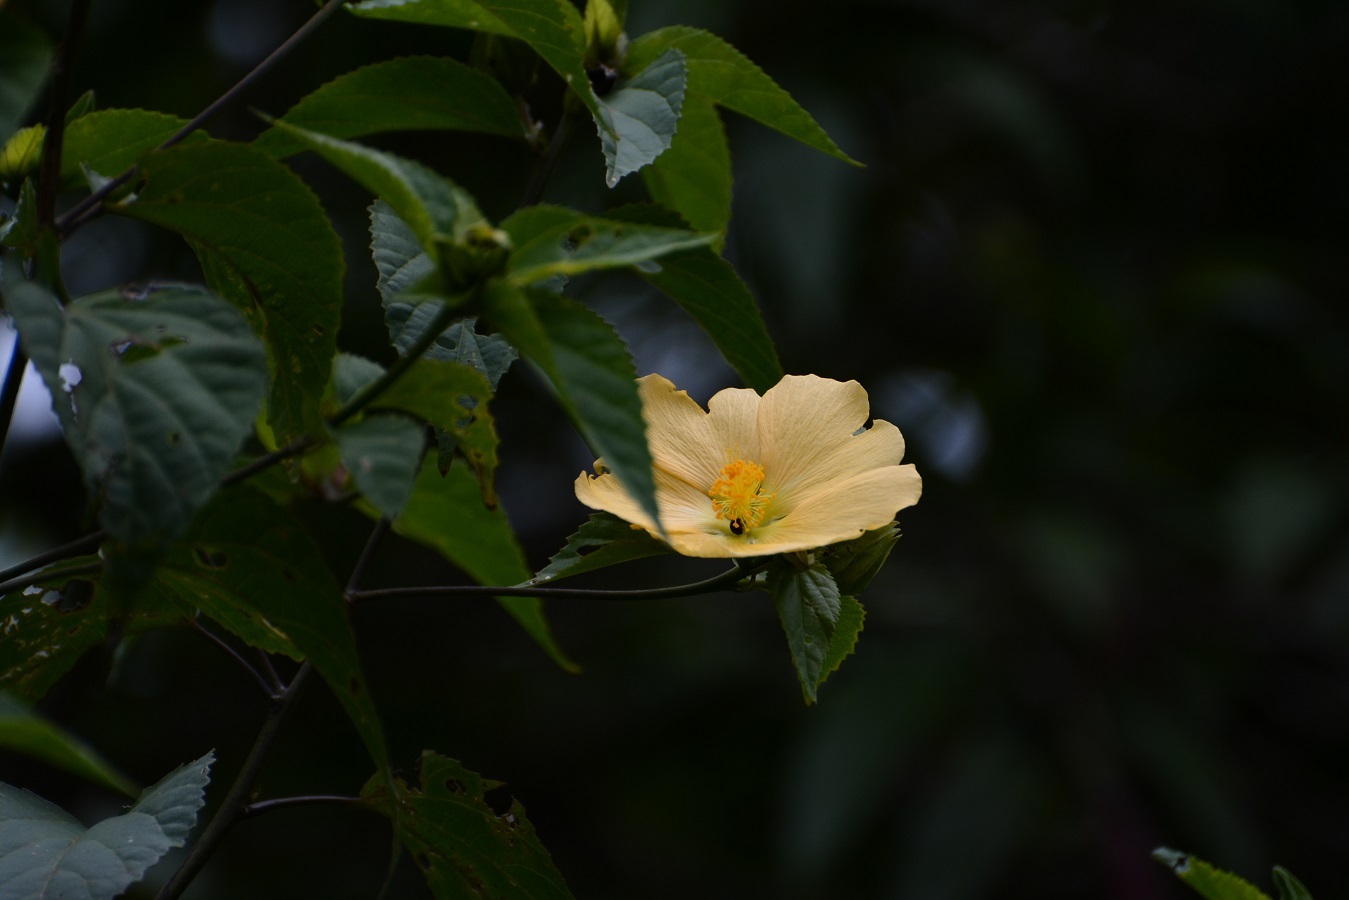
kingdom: Plantae
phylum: Tracheophyta
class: Magnoliopsida
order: Malvales
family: Malvaceae
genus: Dendrosida
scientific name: Dendrosida sharpiana
